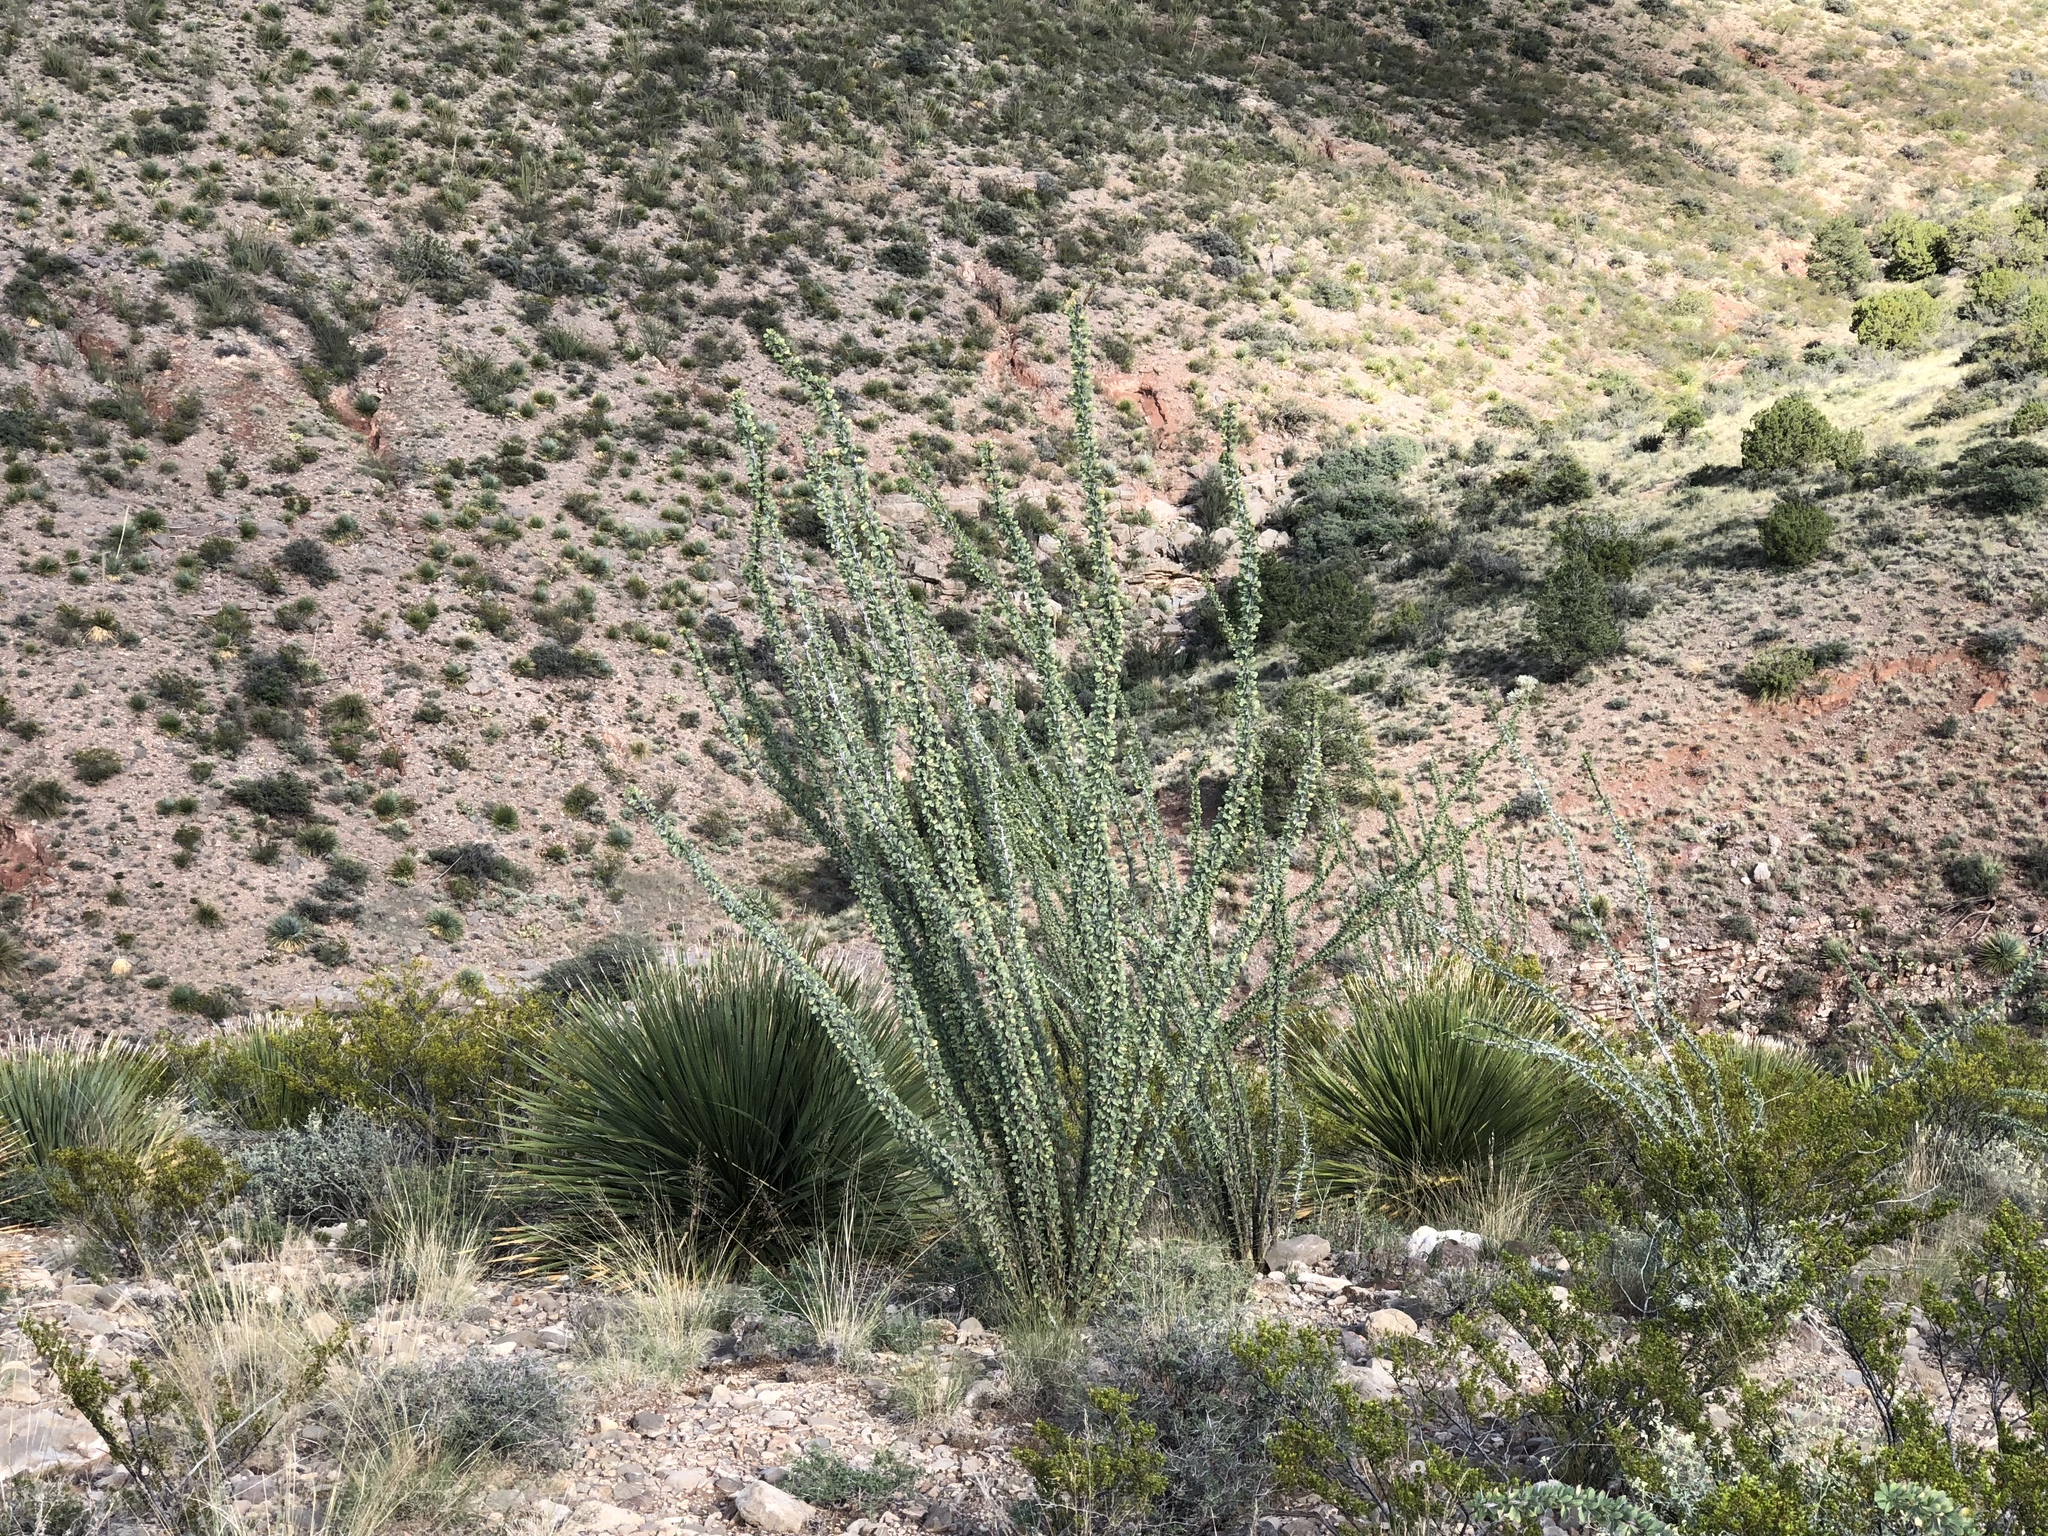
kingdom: Plantae
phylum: Tracheophyta
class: Magnoliopsida
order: Ericales
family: Fouquieriaceae
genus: Fouquieria
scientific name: Fouquieria splendens
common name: Vine-cactus
